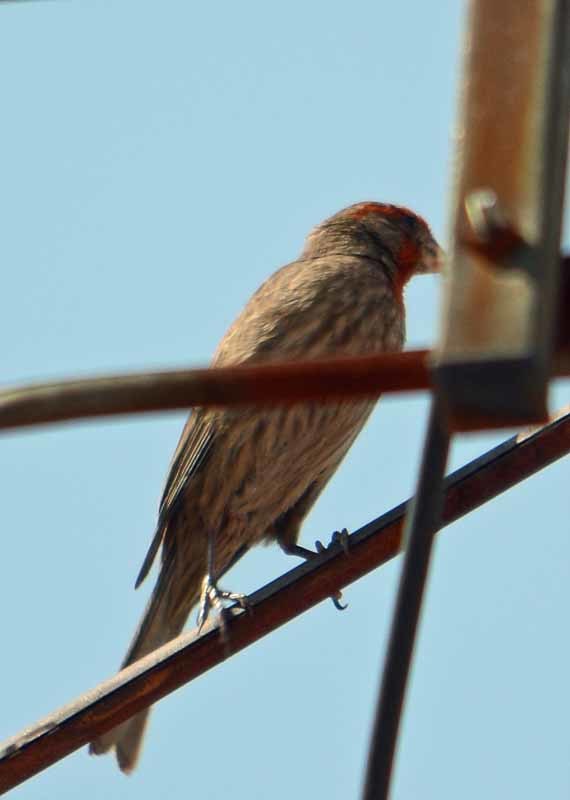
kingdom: Animalia
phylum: Chordata
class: Aves
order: Passeriformes
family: Fringillidae
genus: Haemorhous
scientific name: Haemorhous mexicanus
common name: House finch
